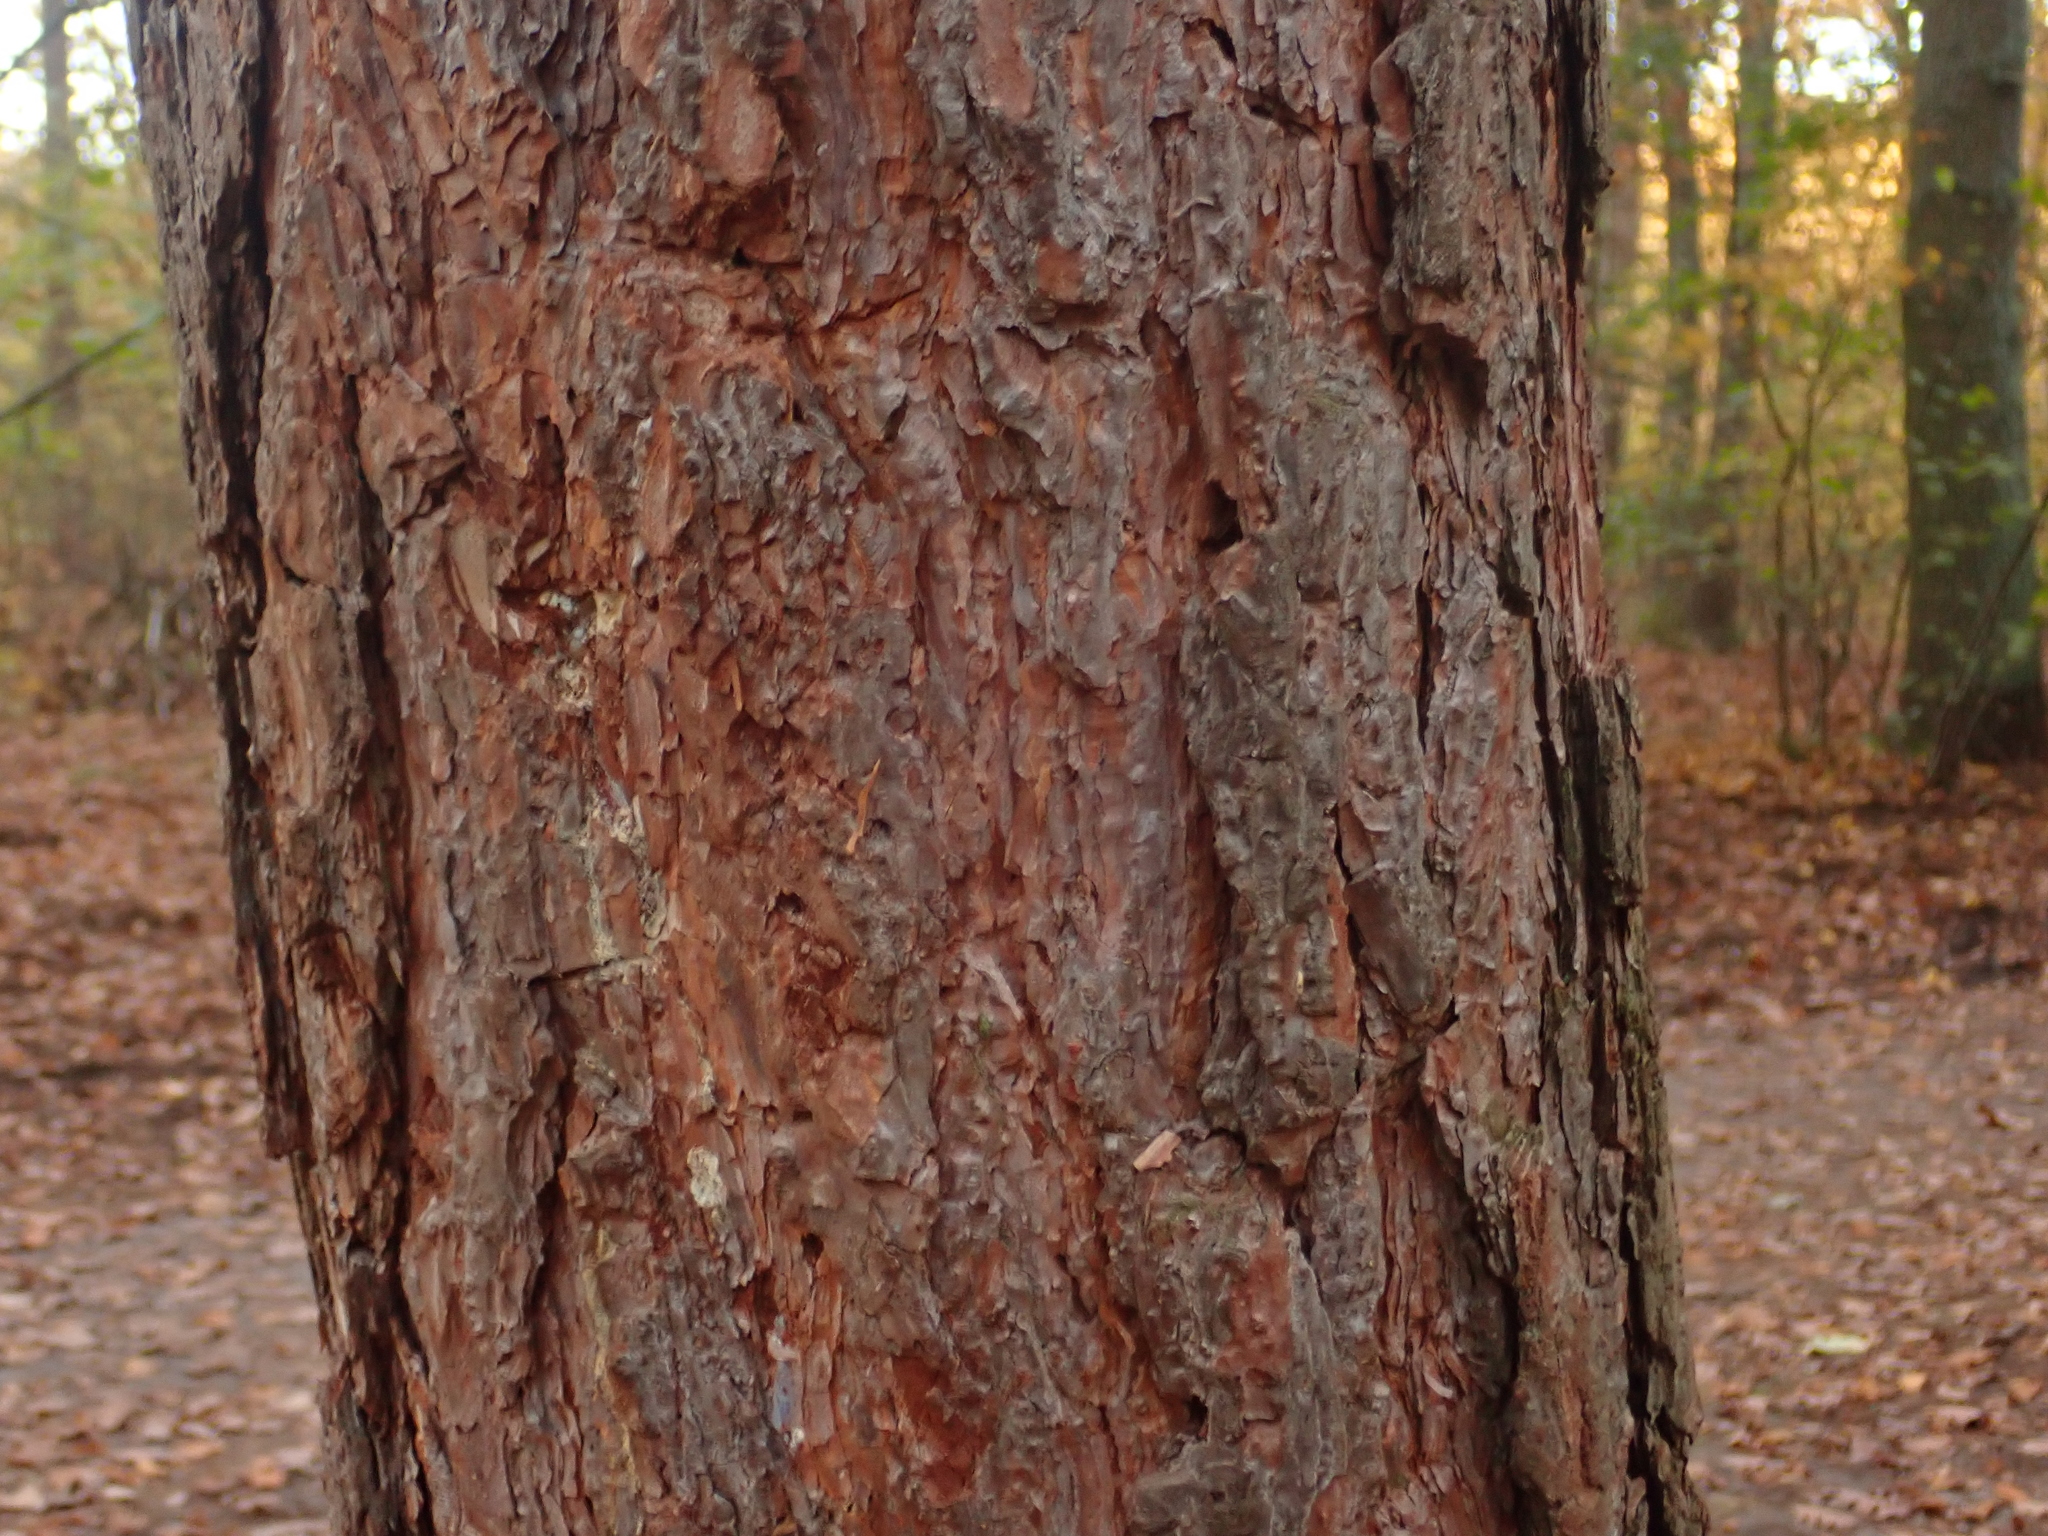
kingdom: Plantae
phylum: Tracheophyta
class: Pinopsida
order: Pinales
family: Pinaceae
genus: Pinus
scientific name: Pinus sylvestris
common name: Scots pine
